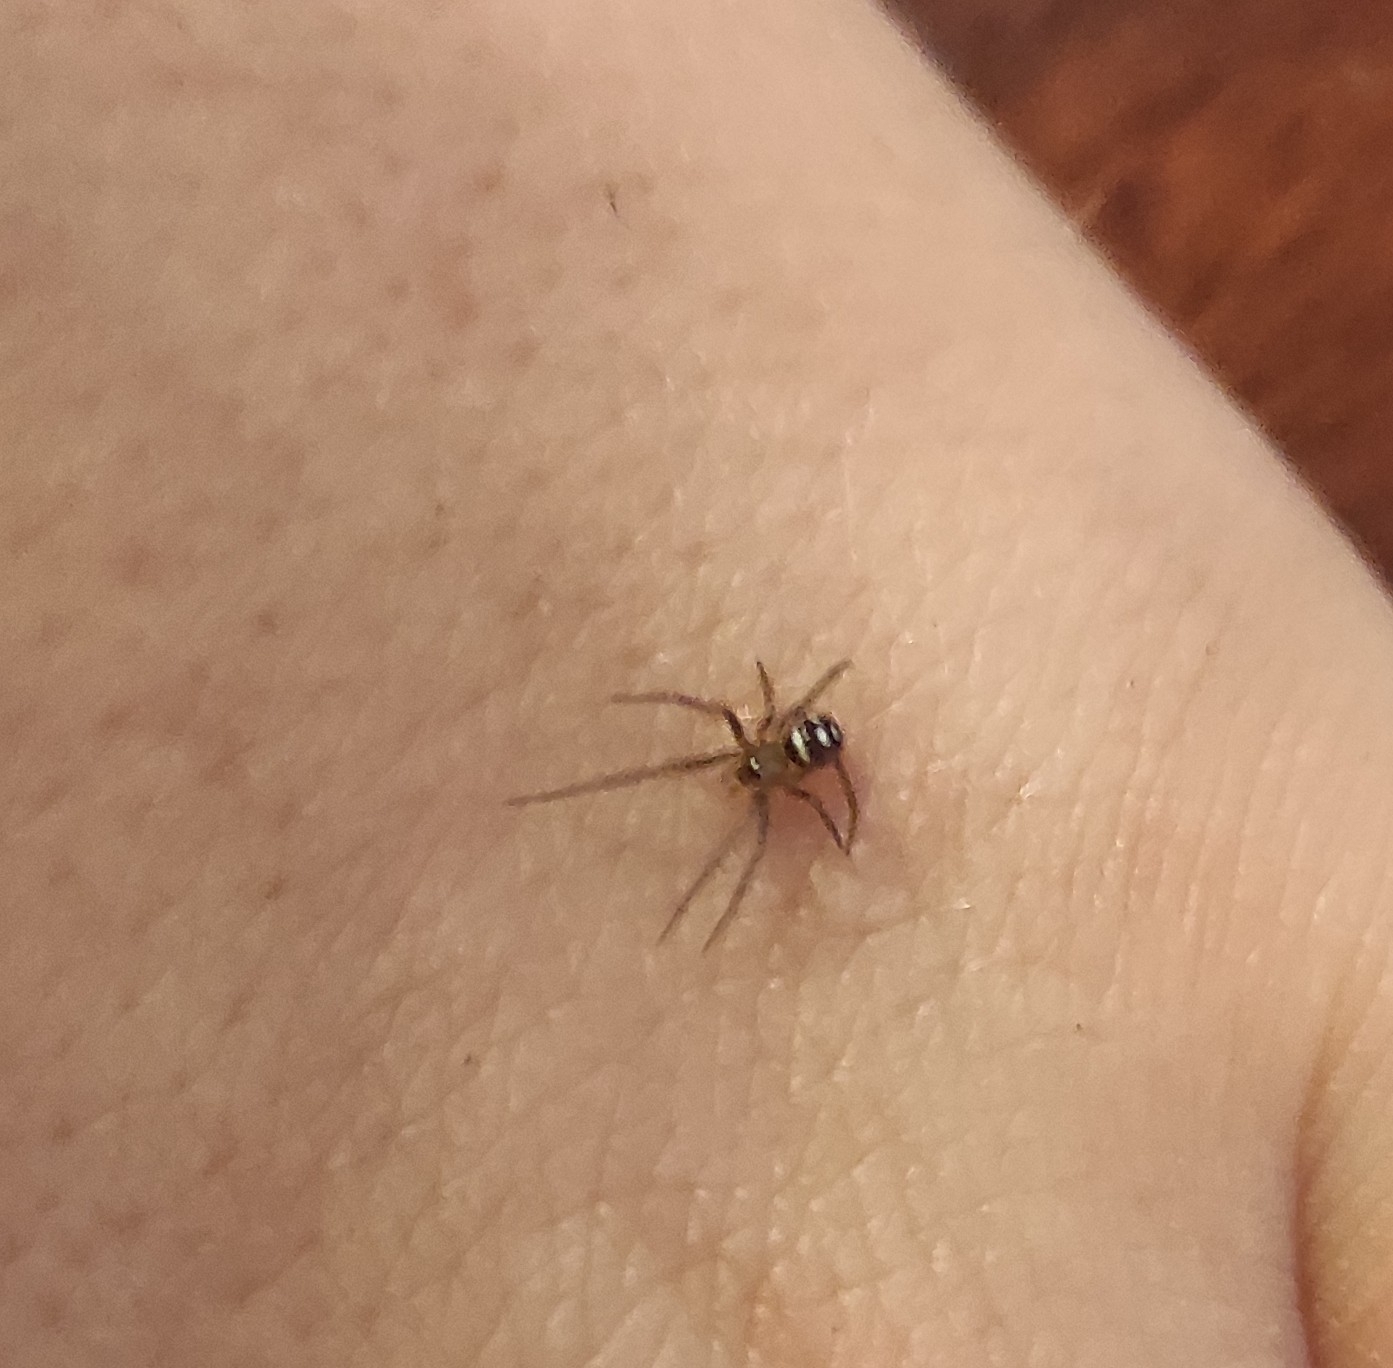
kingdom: Animalia
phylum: Arthropoda
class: Arachnida
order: Araneae
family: Theridiidae
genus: Steatoda
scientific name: Steatoda grossa
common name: False black widow
